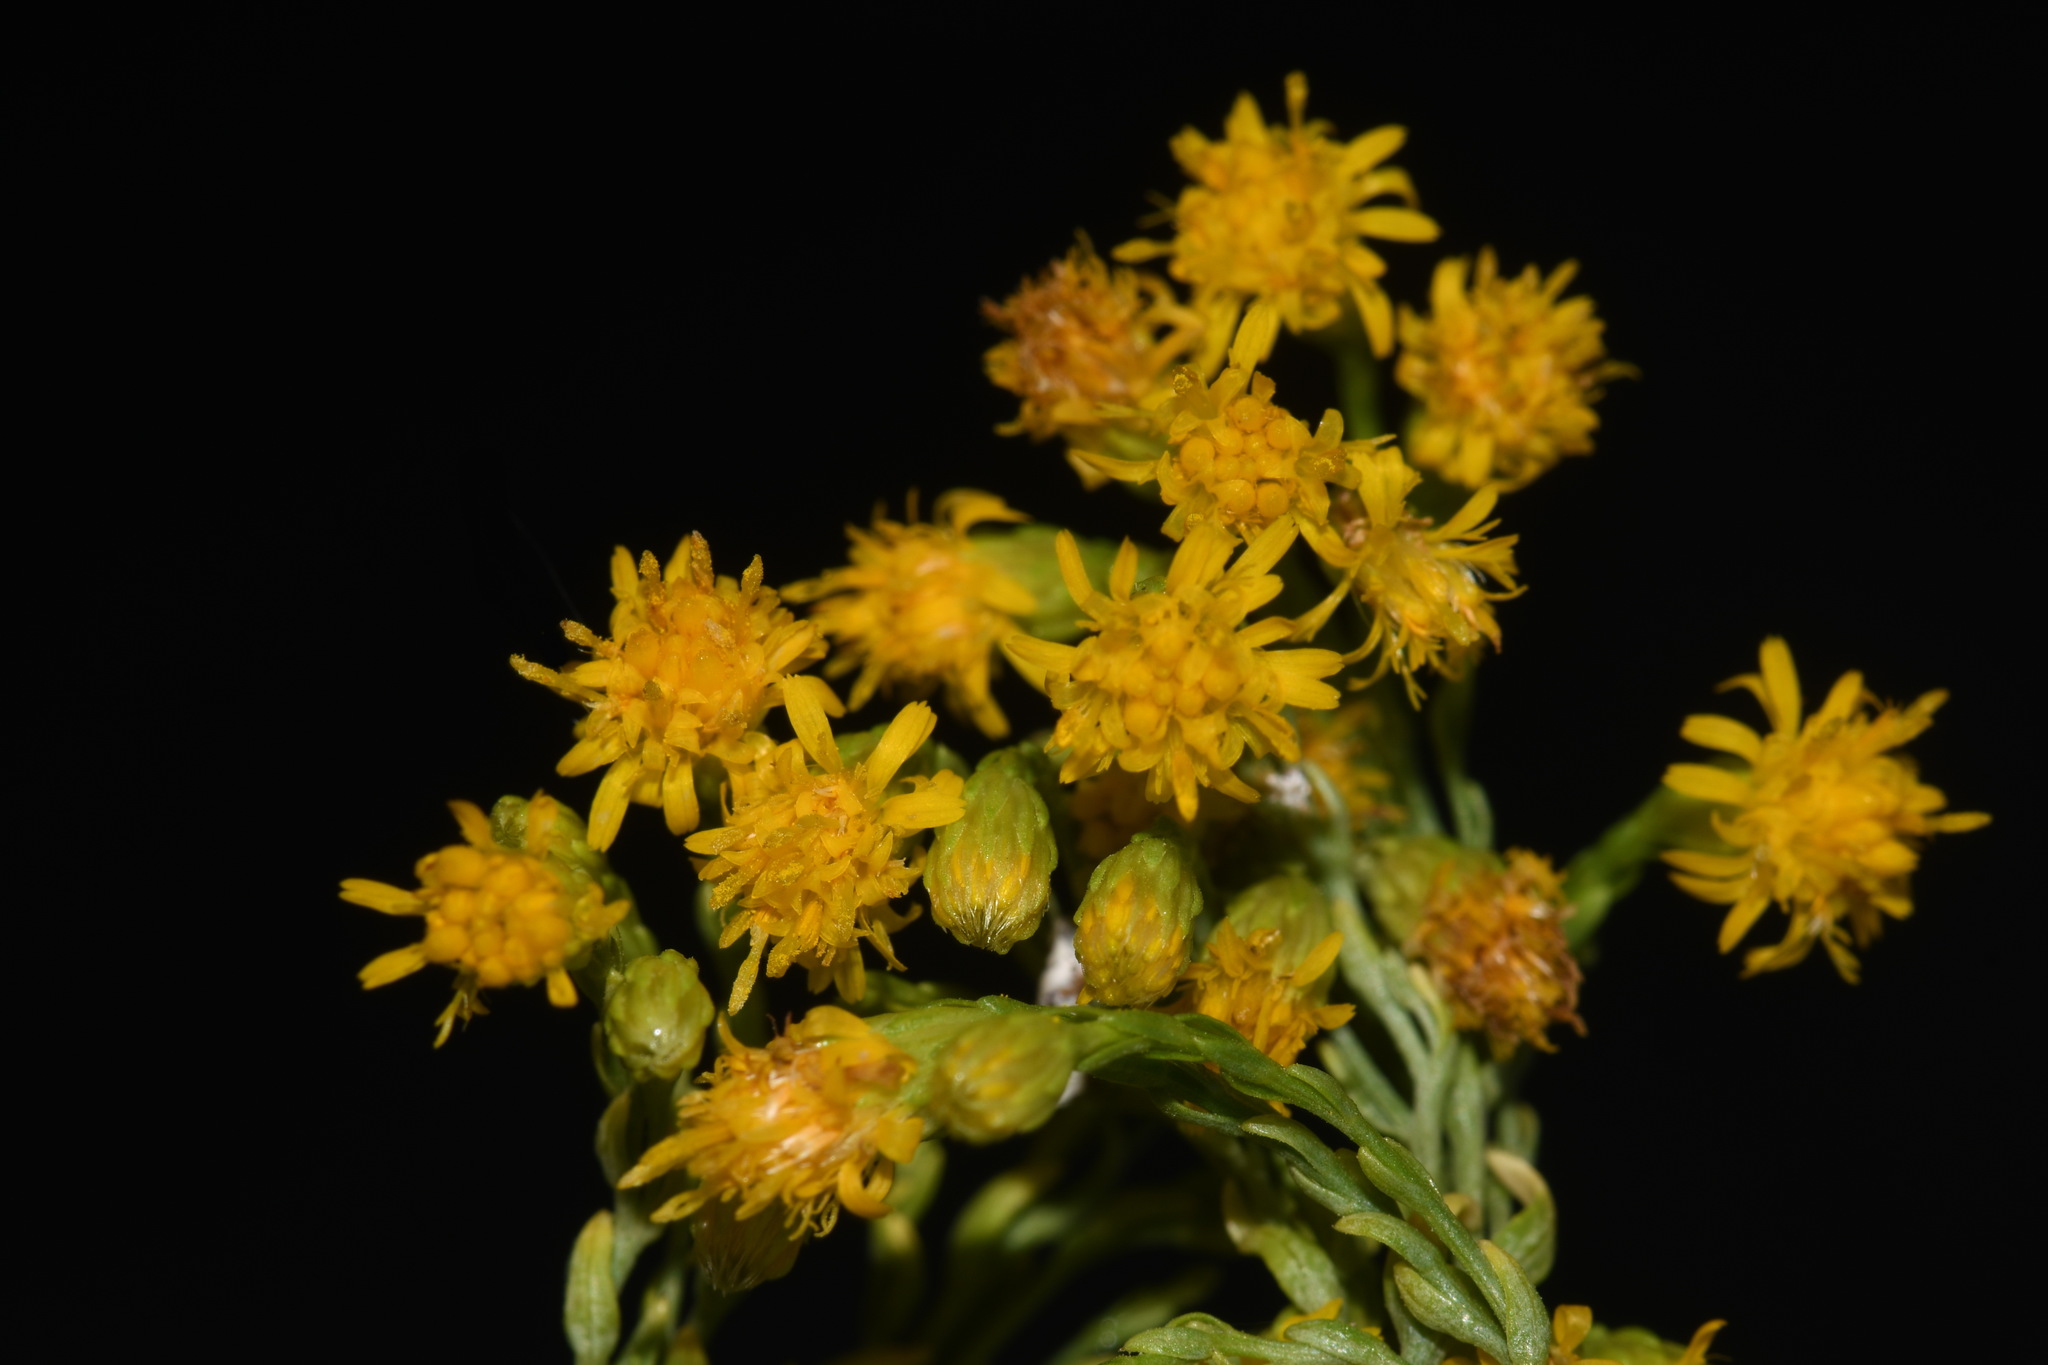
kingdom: Plantae
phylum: Tracheophyta
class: Magnoliopsida
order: Asterales
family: Asteraceae
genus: Euthamia
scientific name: Euthamia occidentalis
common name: Western goldentop
